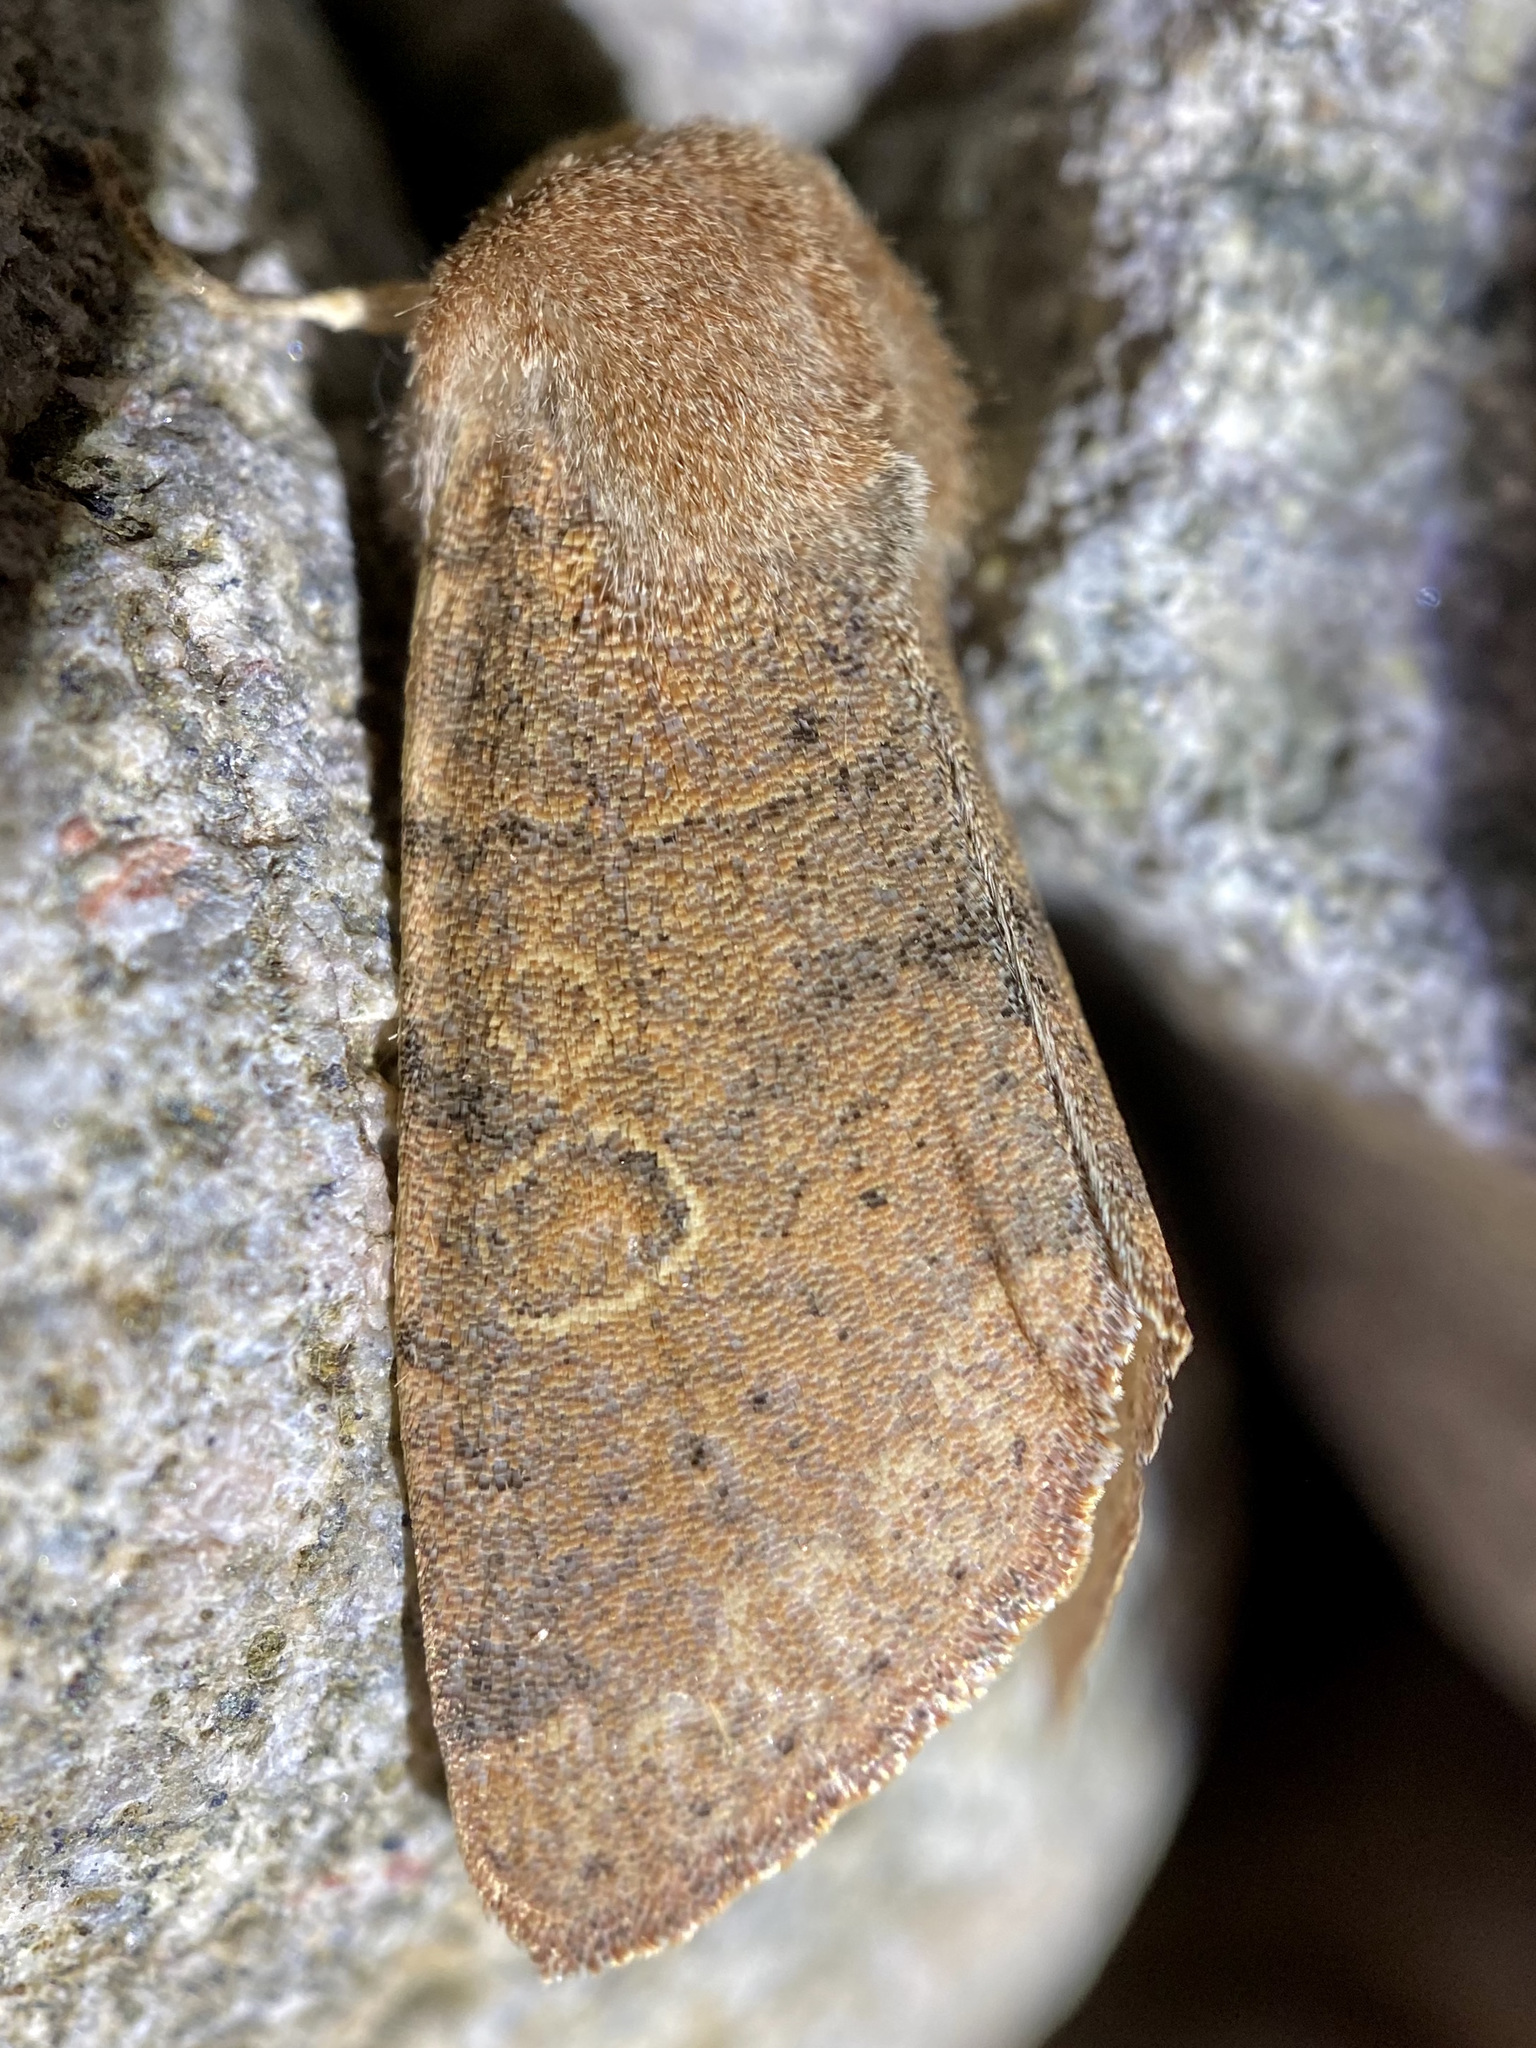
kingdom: Animalia
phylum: Arthropoda
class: Insecta
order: Lepidoptera
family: Noctuidae
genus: Orthosia
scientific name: Orthosia annulimacula
